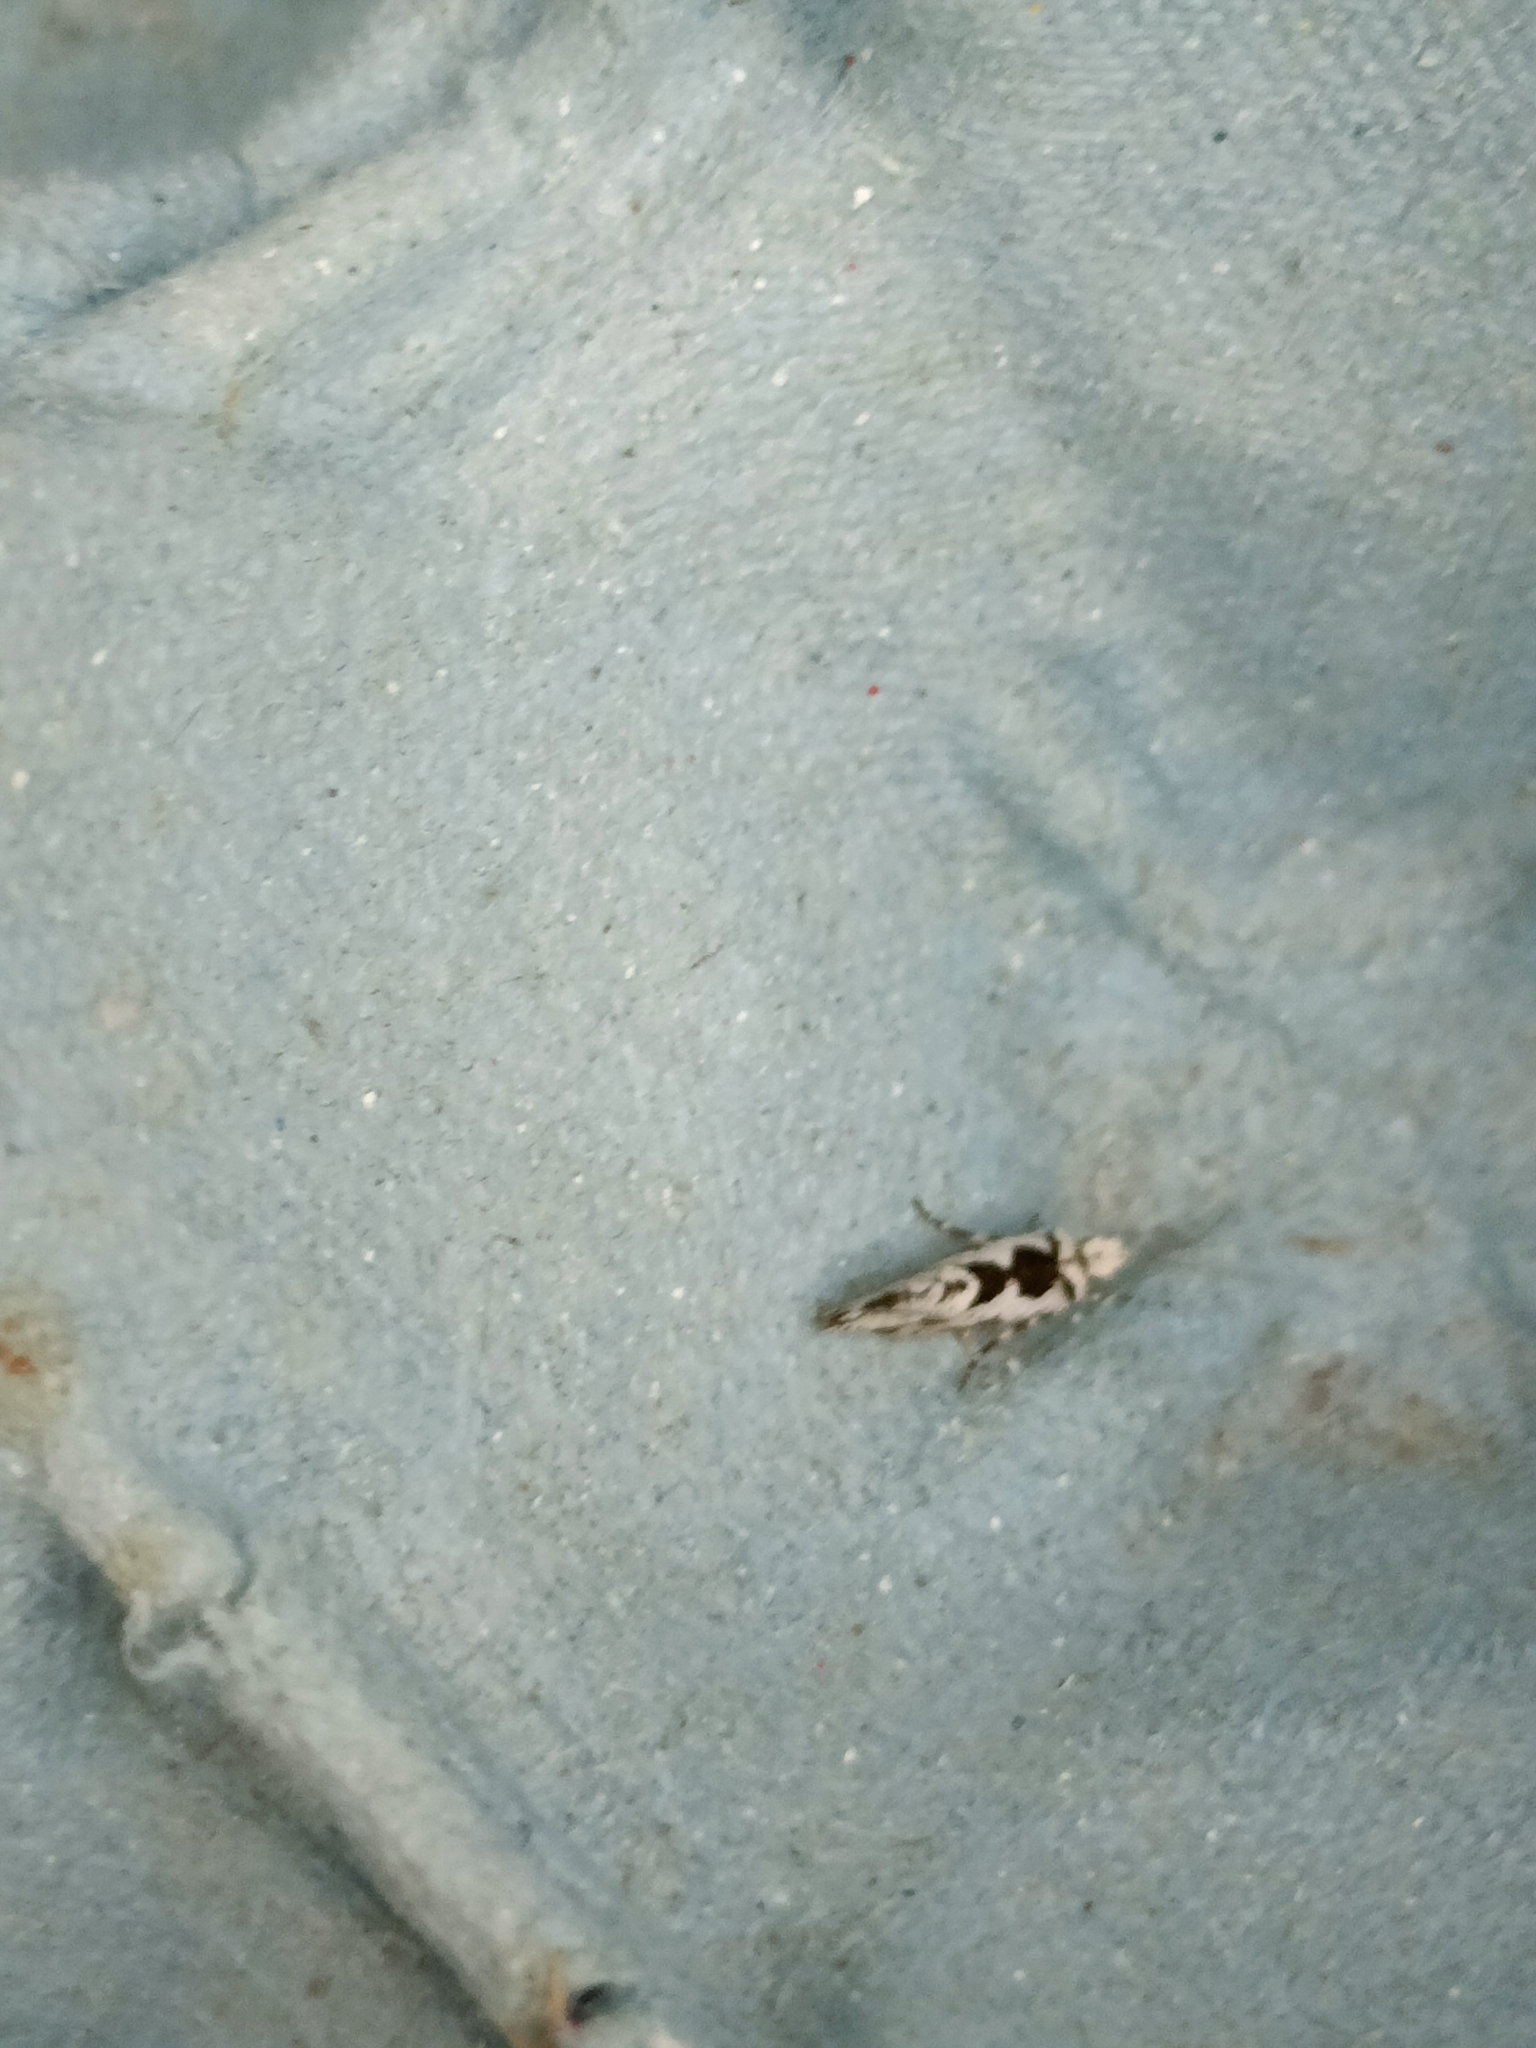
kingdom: Animalia
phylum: Arthropoda
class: Insecta
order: Lepidoptera
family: Plutellidae
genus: Ypsolophus
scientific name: Ypsolophus sequella
